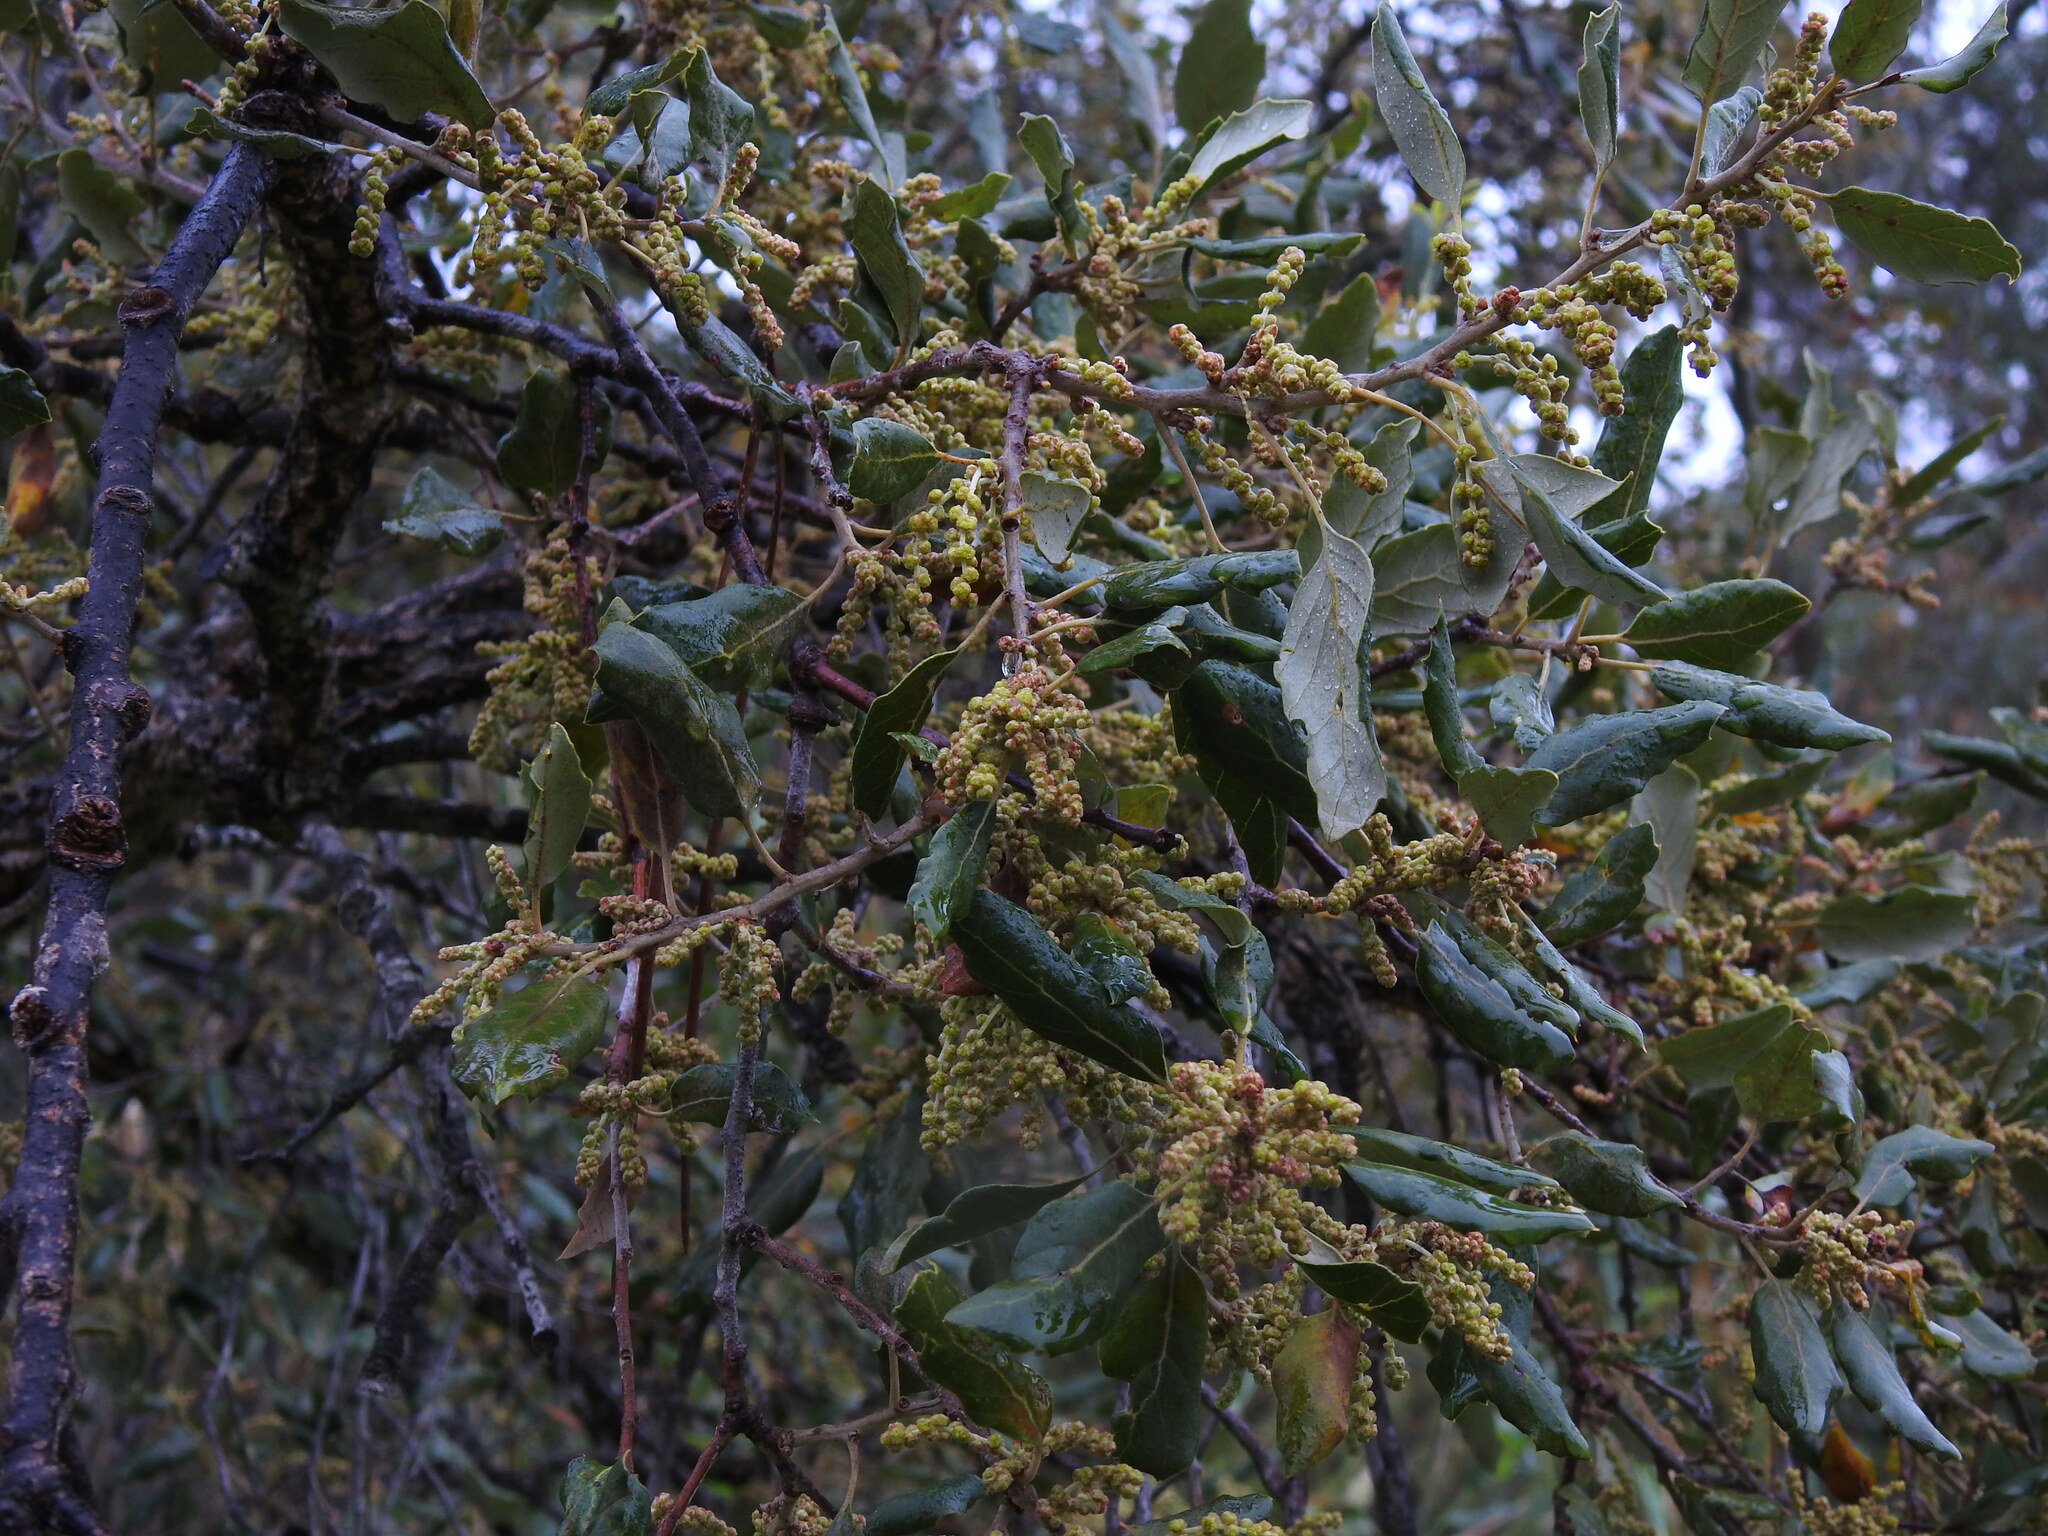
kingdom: Plantae
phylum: Tracheophyta
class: Magnoliopsida
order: Fagales
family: Fagaceae
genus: Quercus
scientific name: Quercus suber
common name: Cork oak
